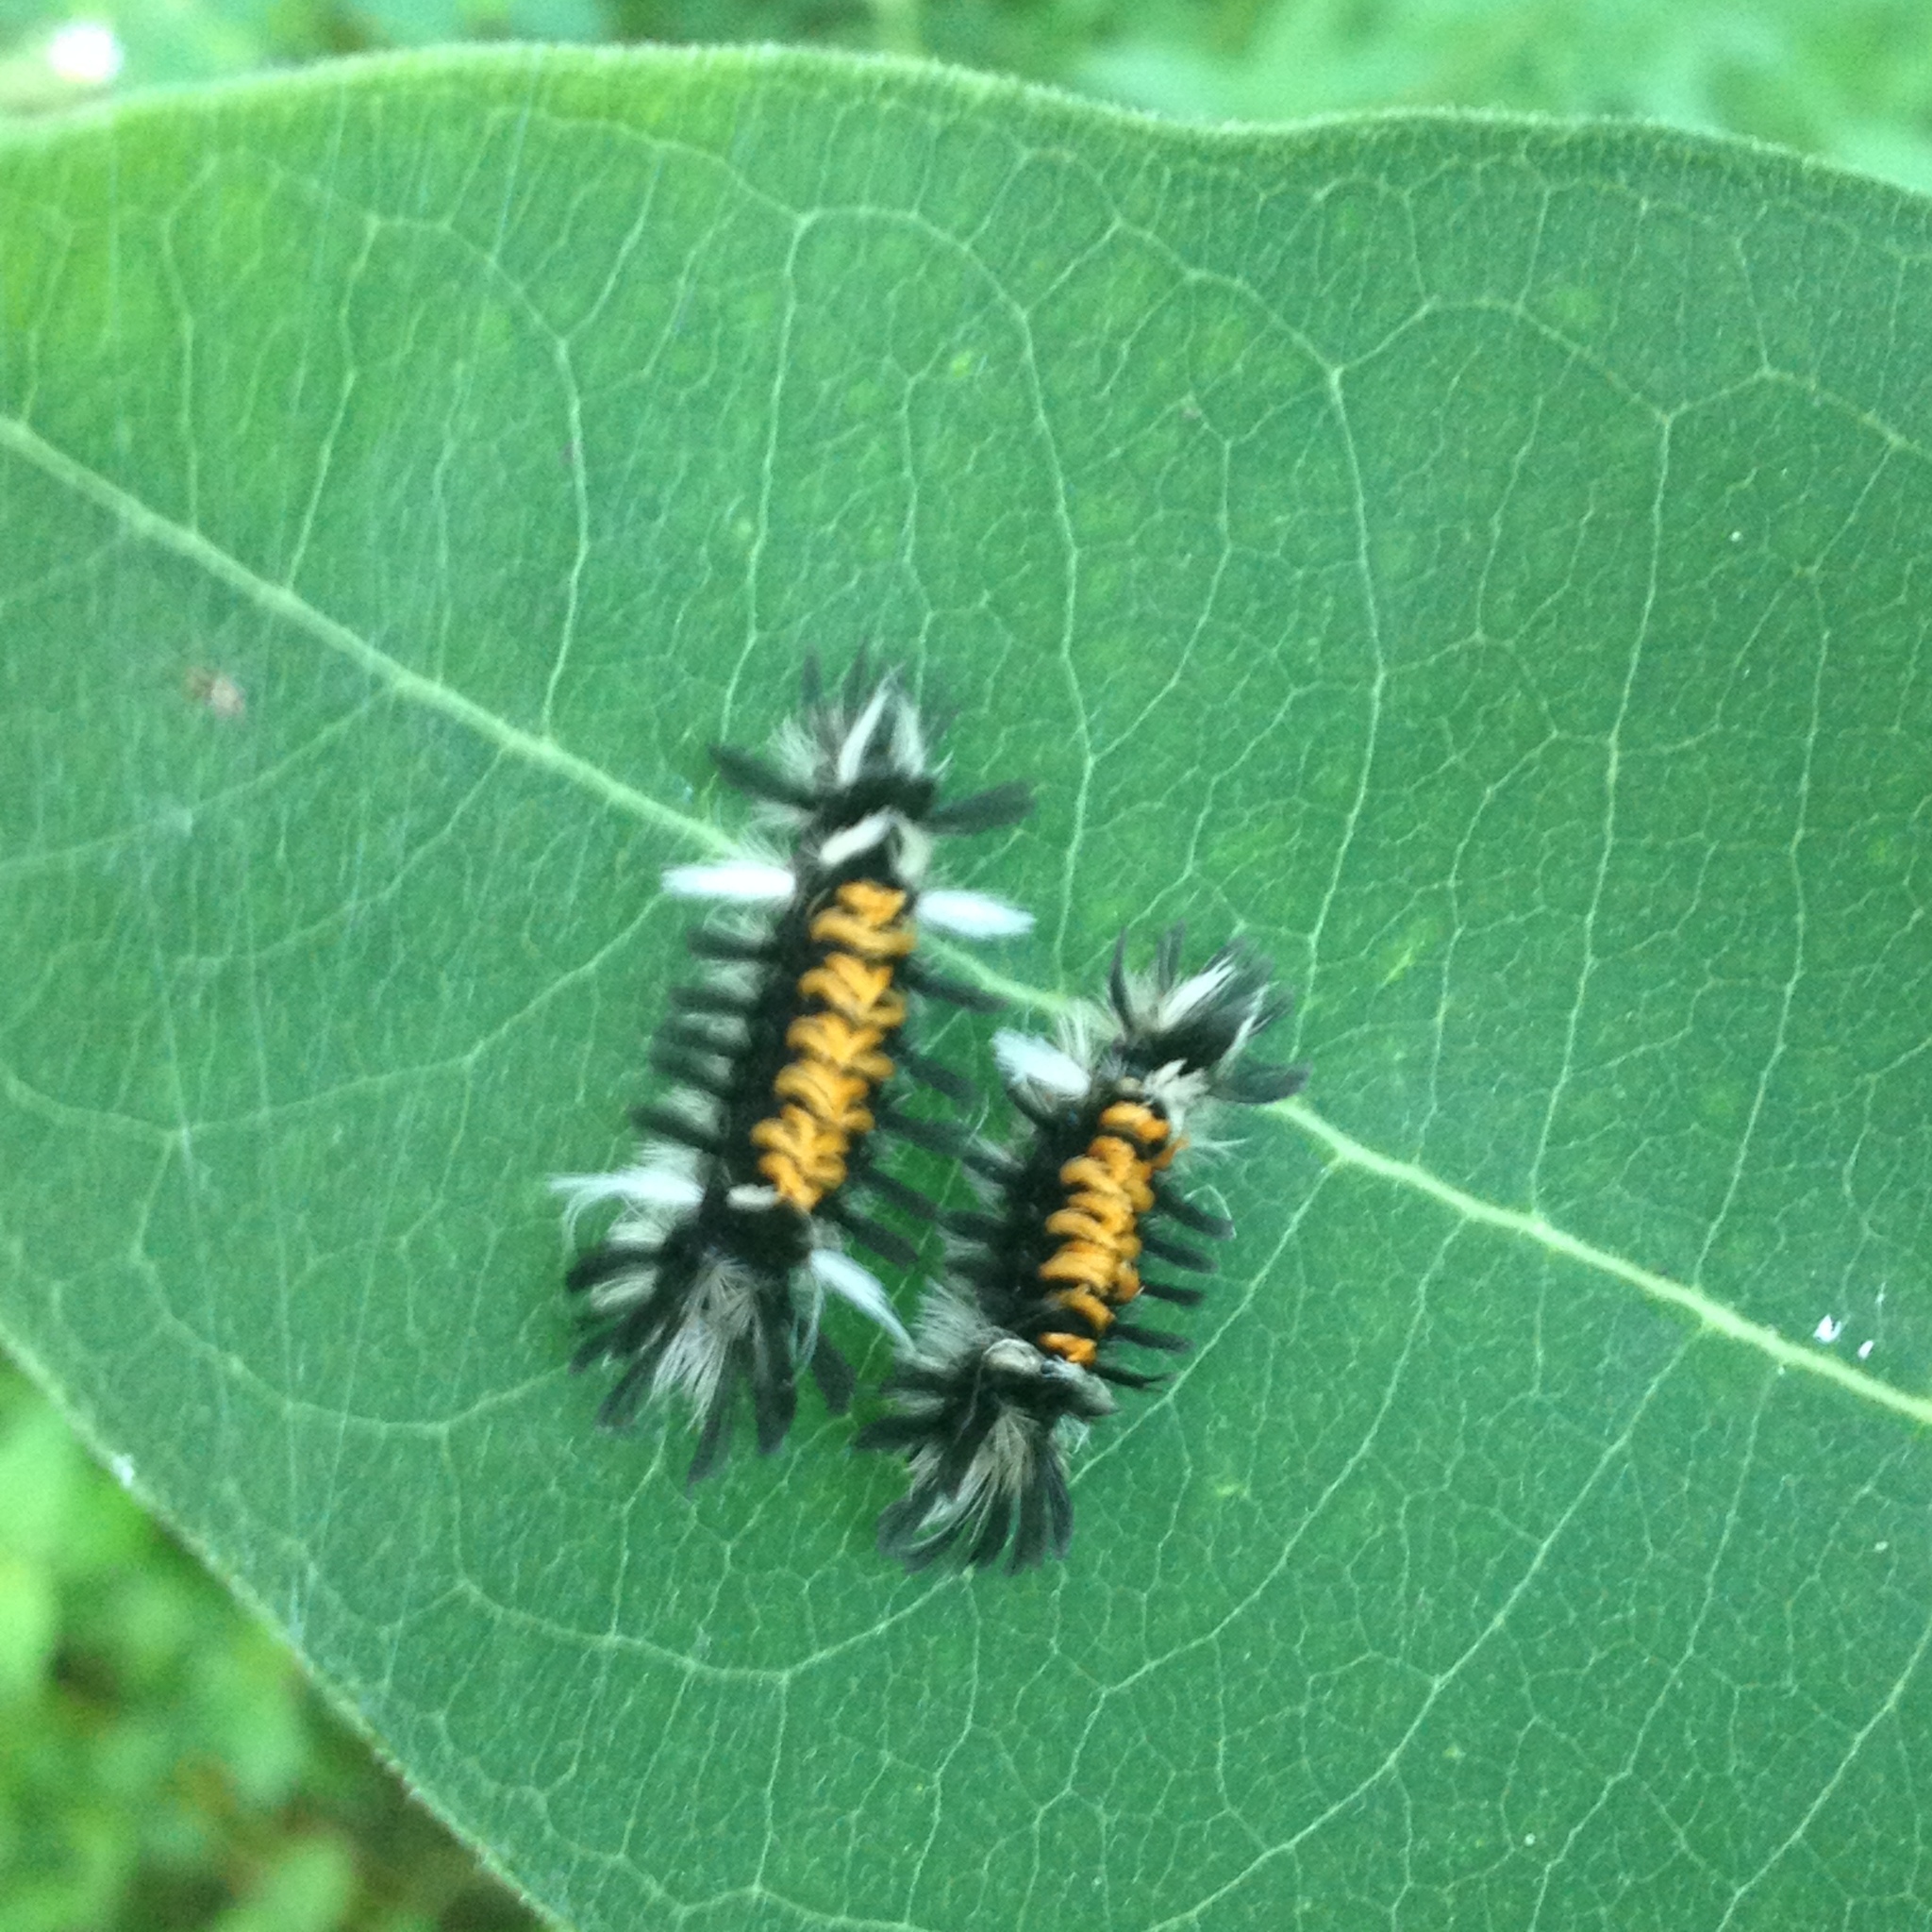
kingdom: Animalia
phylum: Arthropoda
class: Insecta
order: Lepidoptera
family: Erebidae
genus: Euchaetes
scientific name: Euchaetes egle
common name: Milkweed tussock moth
